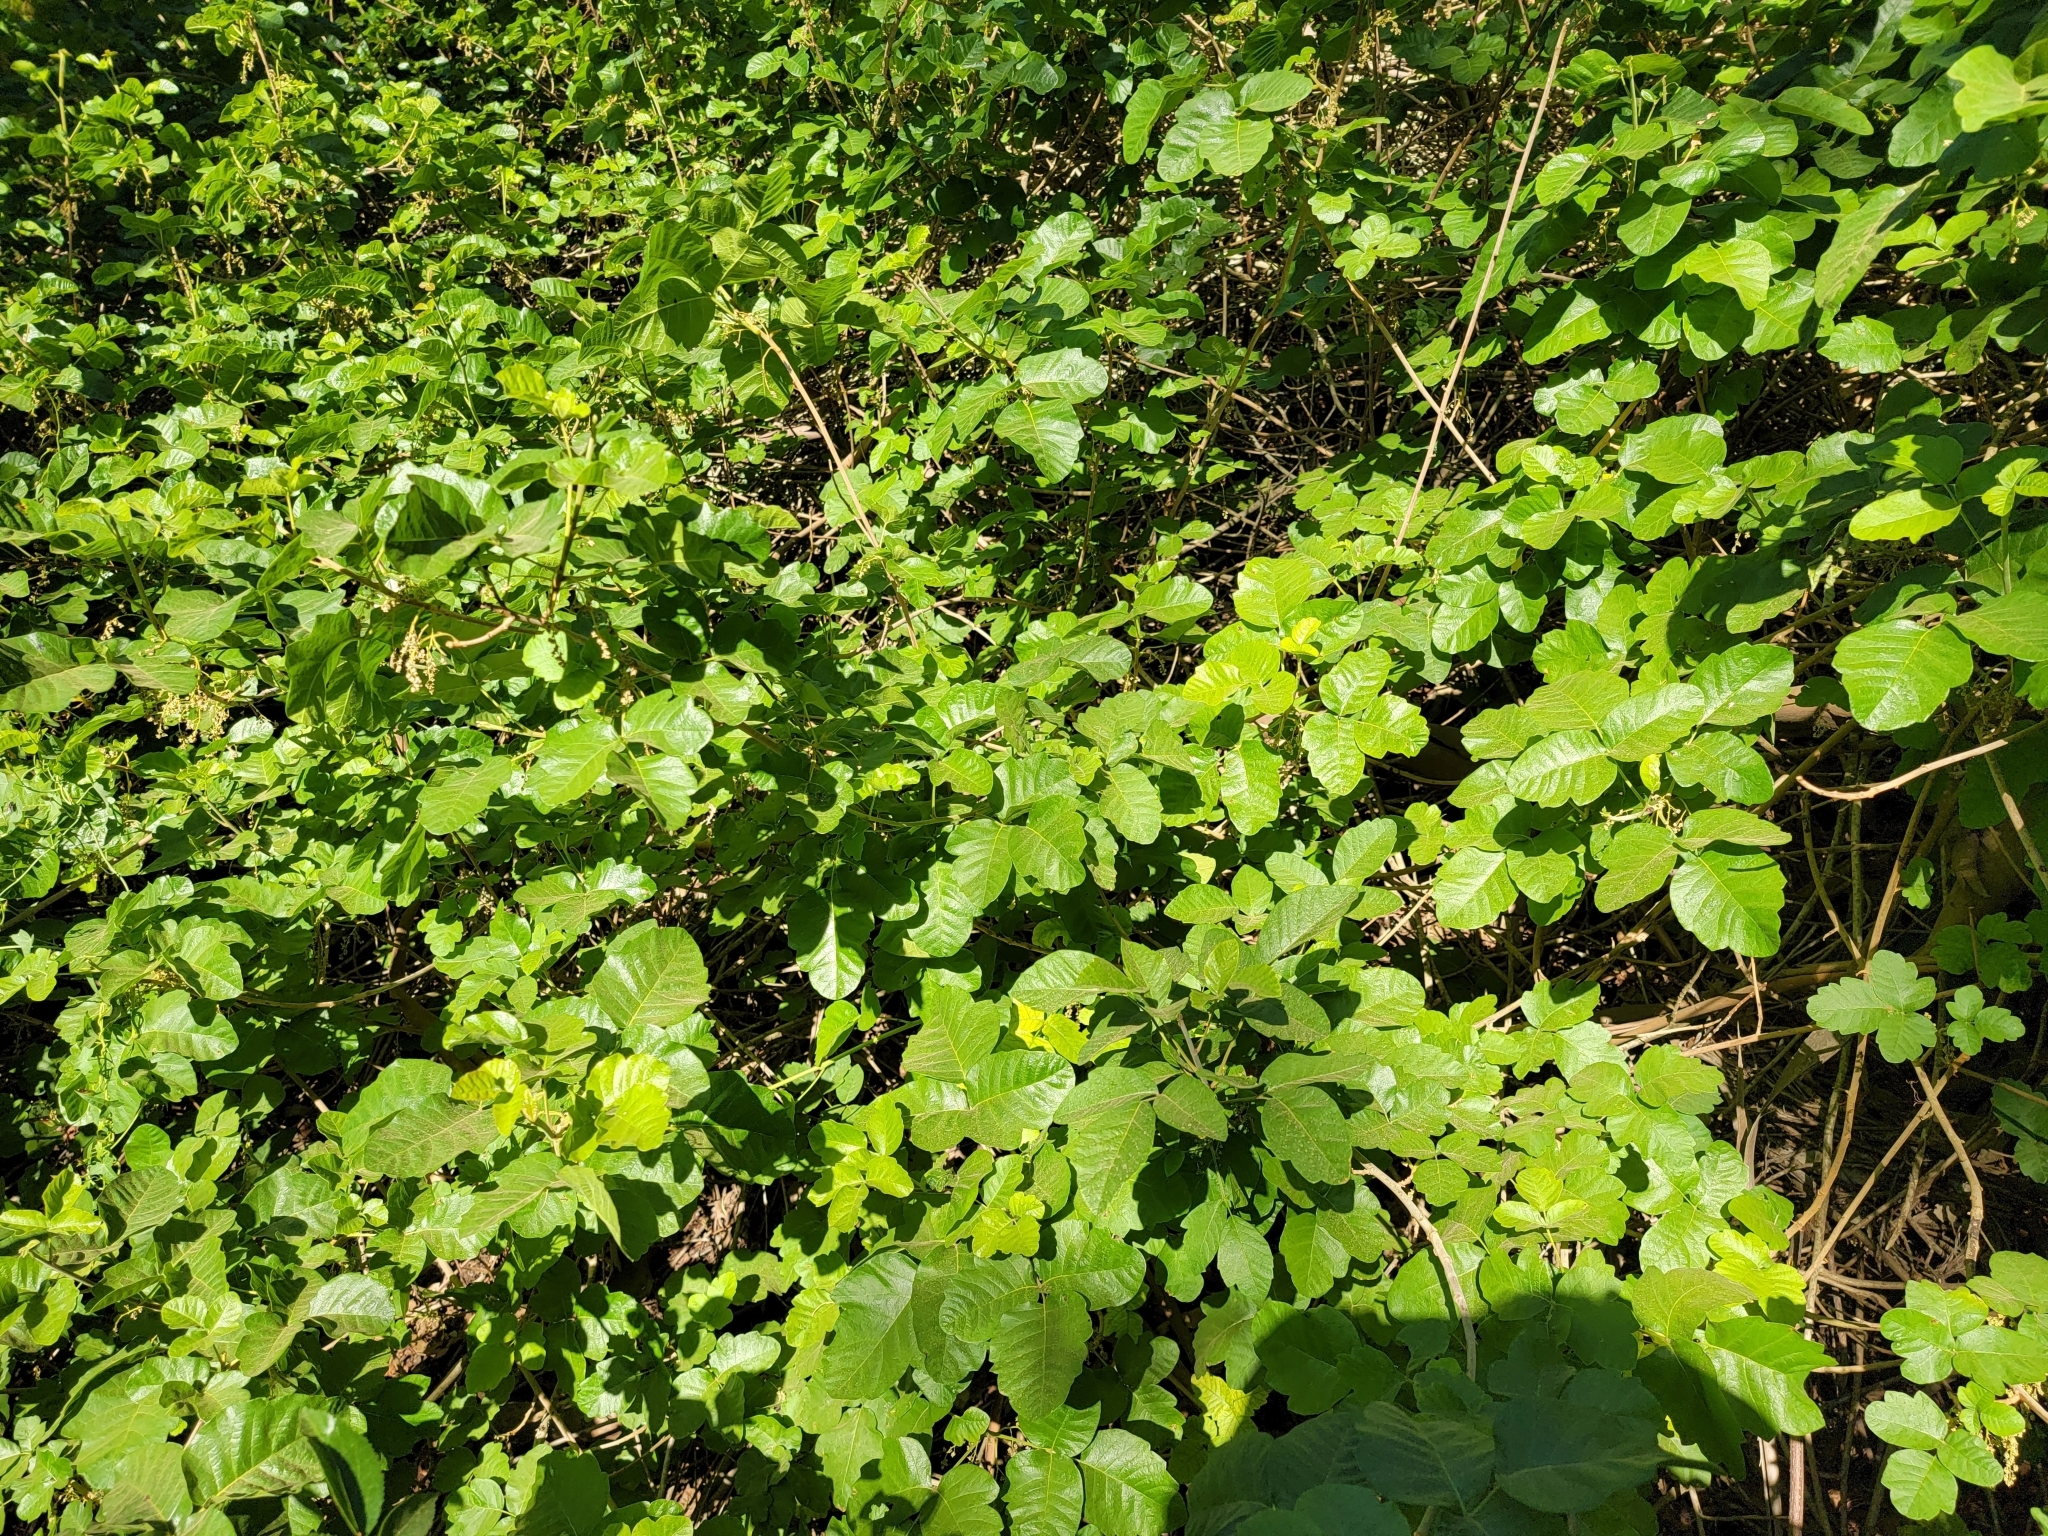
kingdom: Plantae
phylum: Tracheophyta
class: Magnoliopsida
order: Sapindales
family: Anacardiaceae
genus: Toxicodendron
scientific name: Toxicodendron diversilobum
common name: Pacific poison-oak
